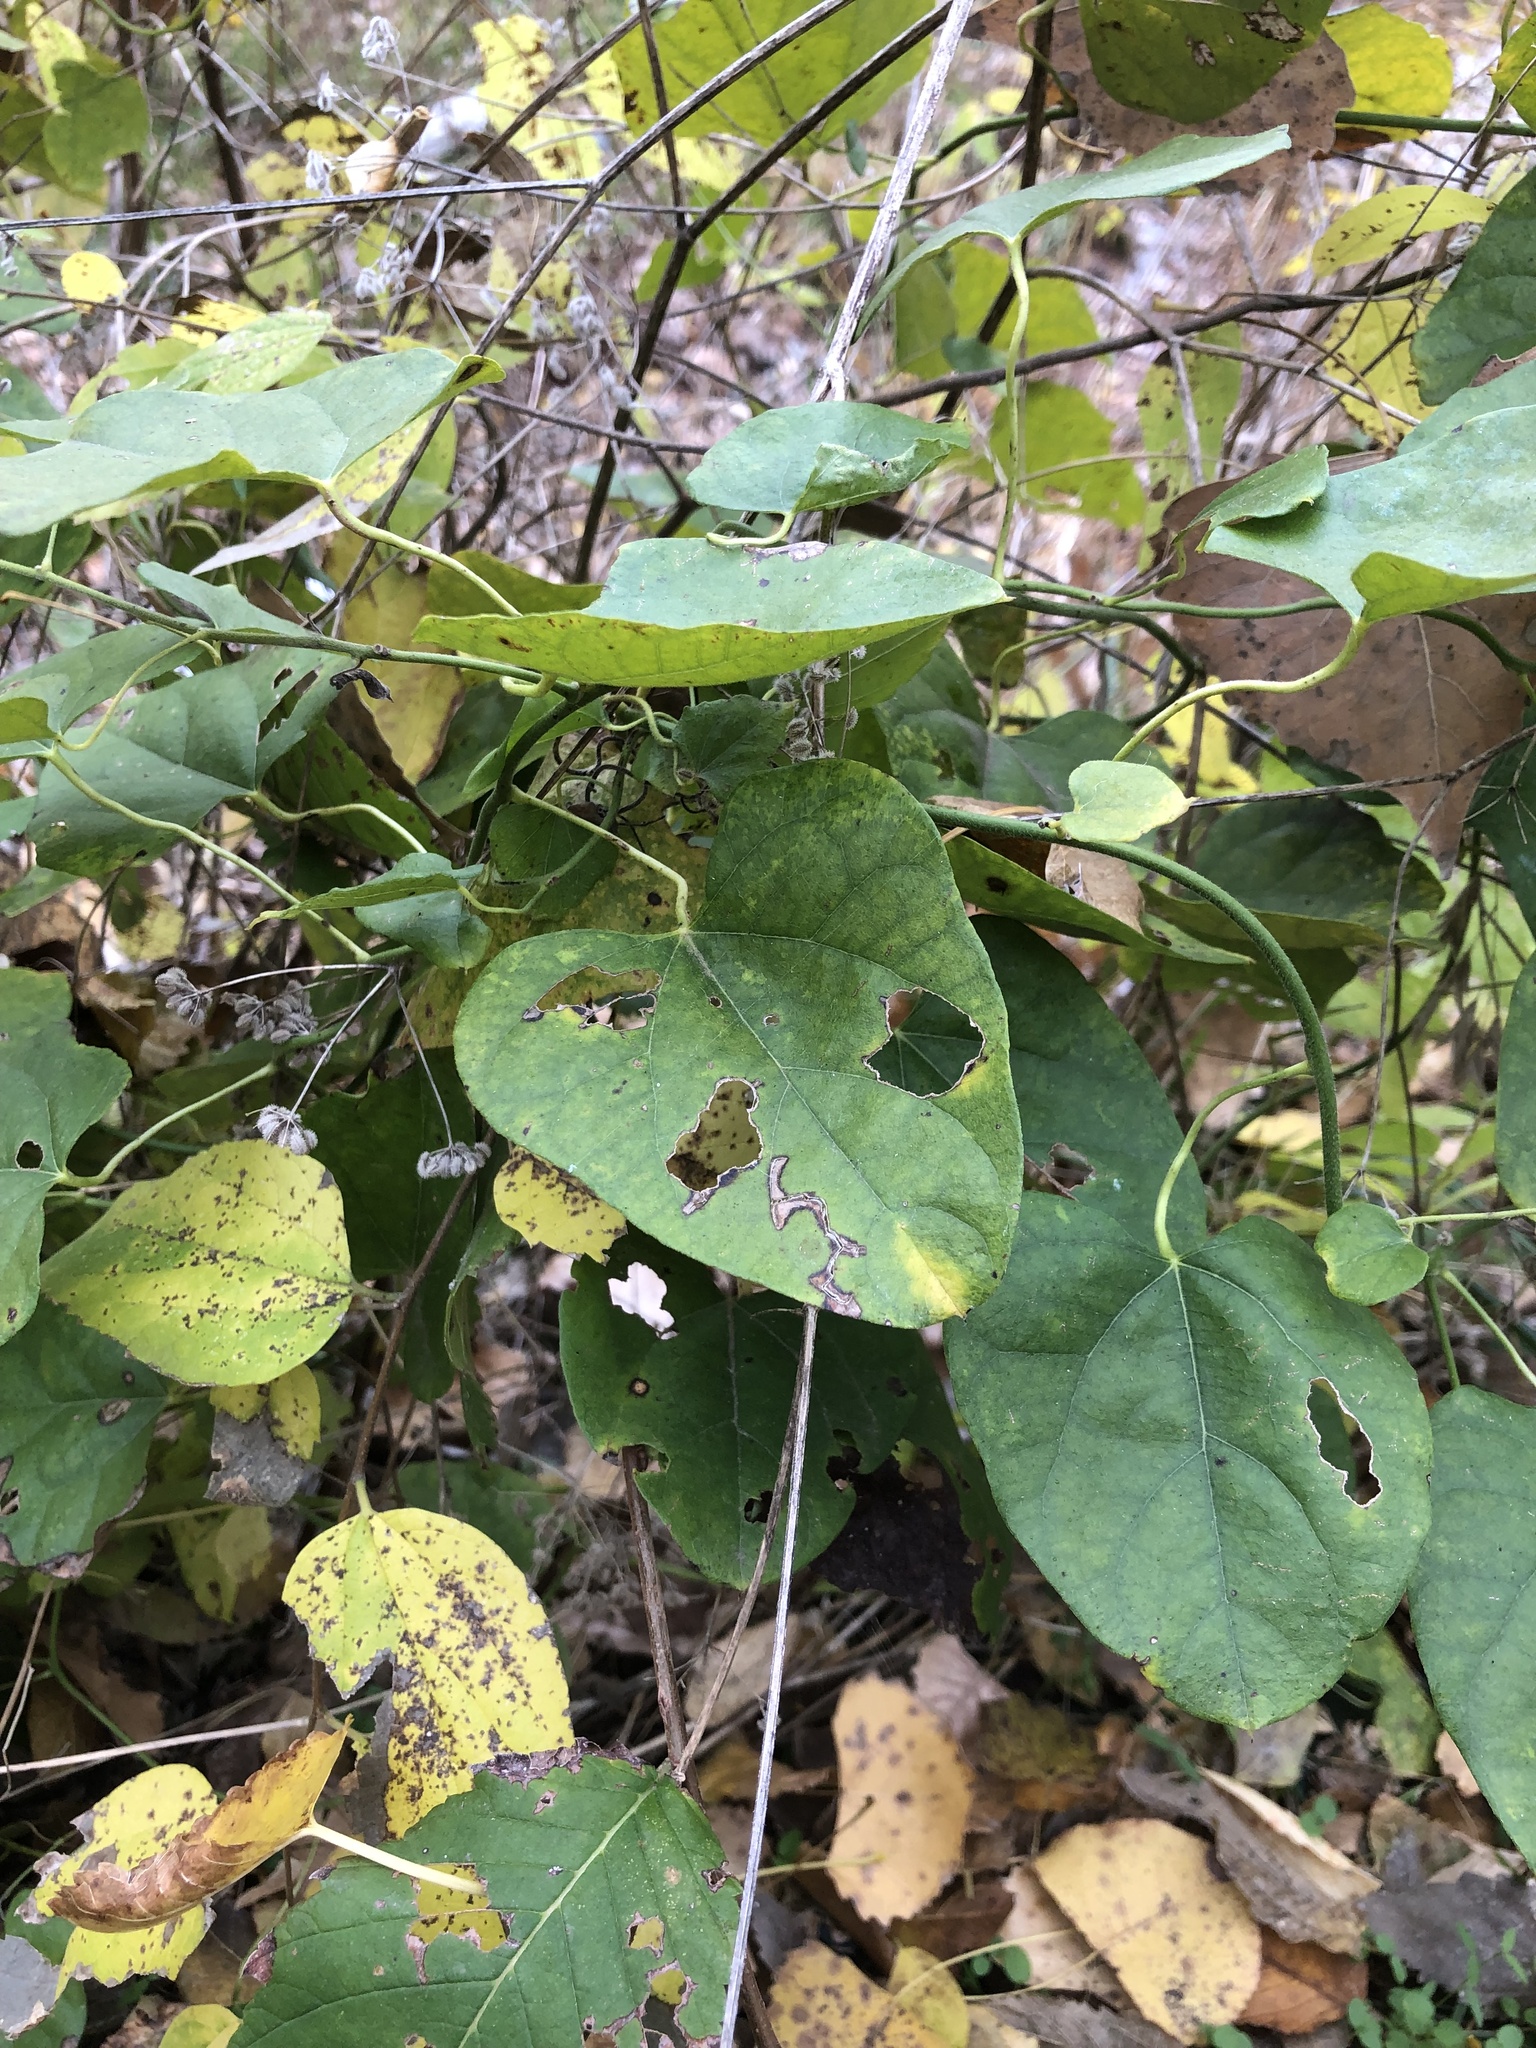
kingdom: Plantae
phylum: Tracheophyta
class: Magnoliopsida
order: Ranunculales
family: Menispermaceae
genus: Cocculus
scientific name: Cocculus carolinus
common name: Carolina moonseed
